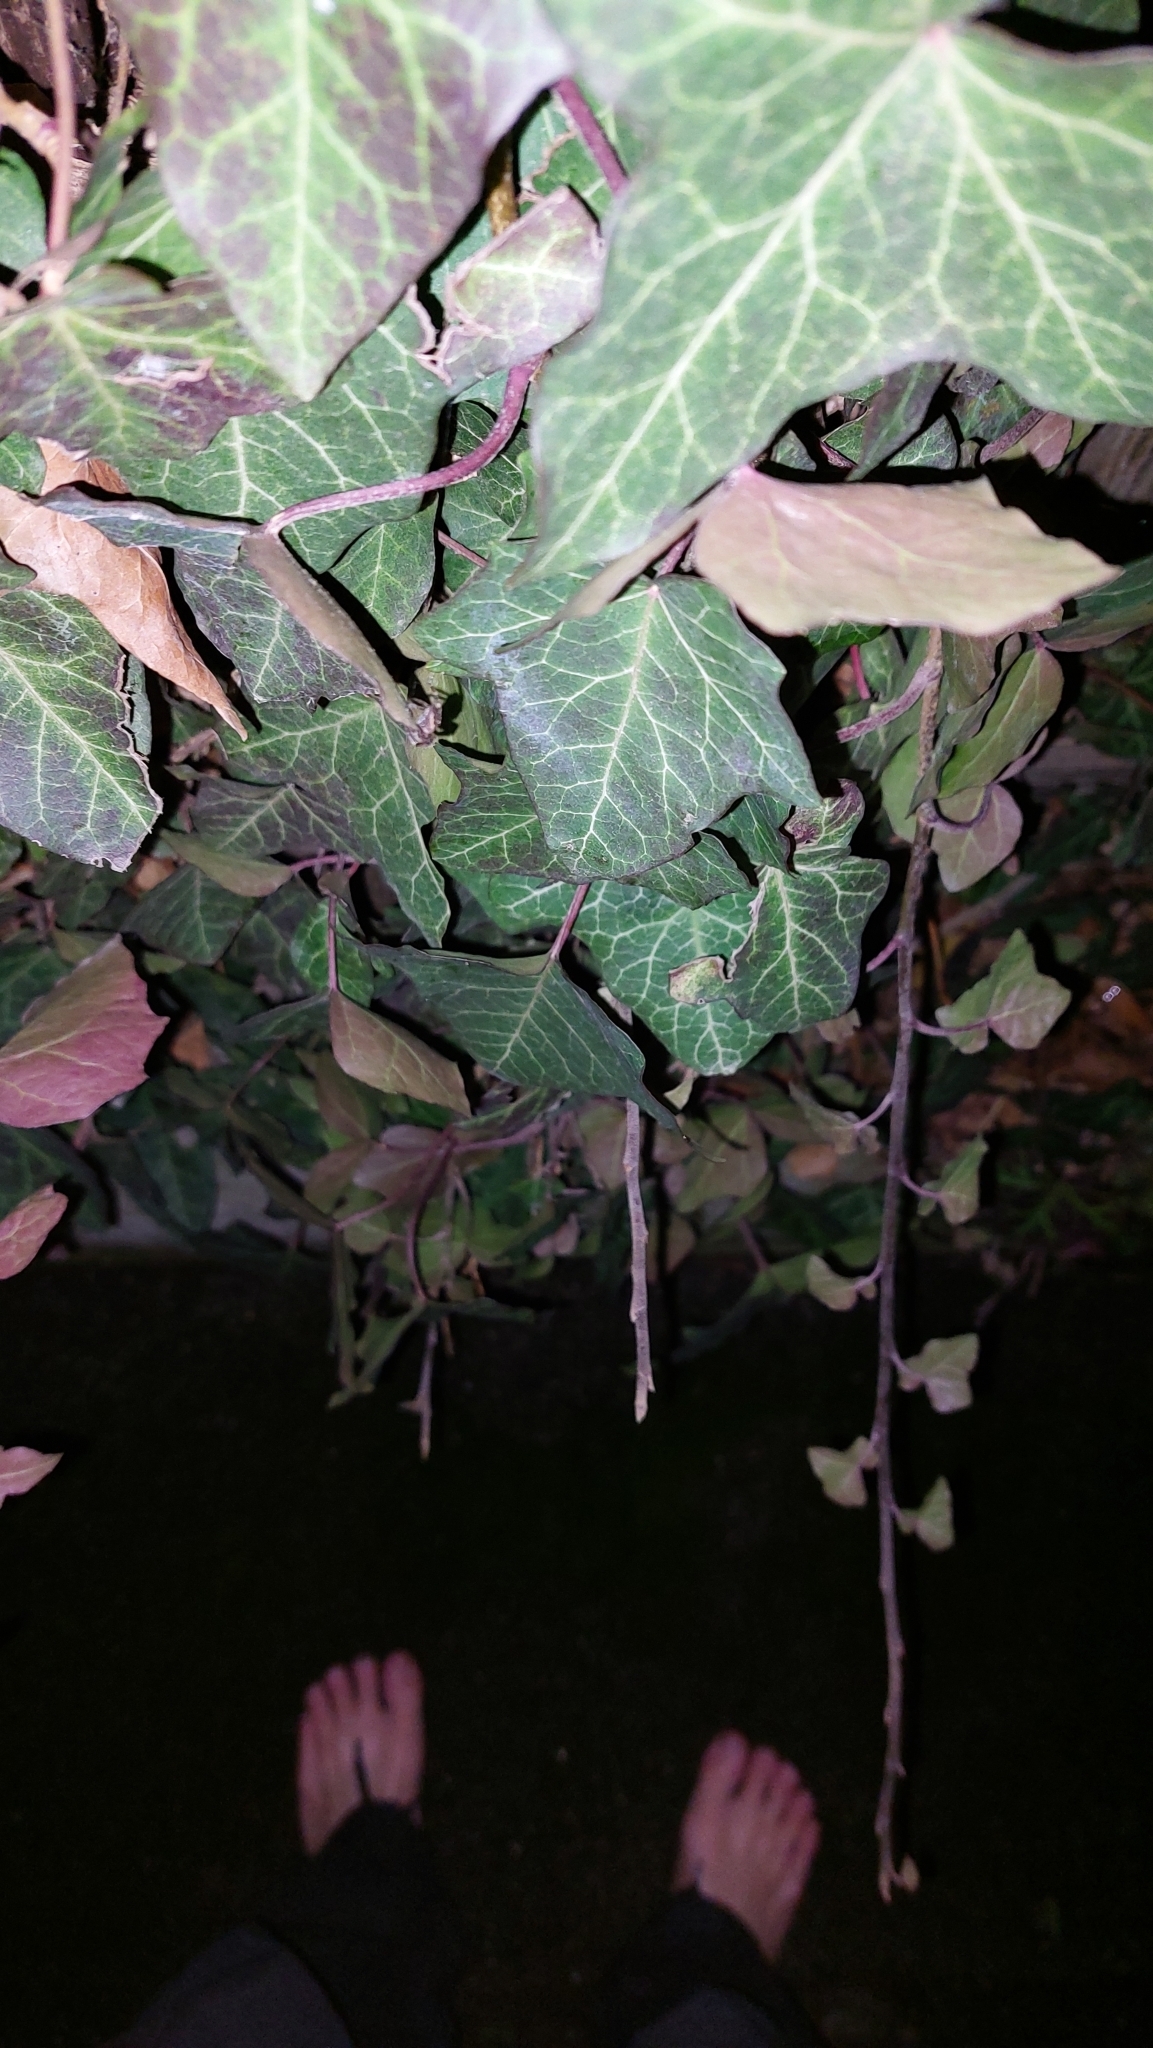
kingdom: Plantae
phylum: Tracheophyta
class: Magnoliopsida
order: Apiales
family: Araliaceae
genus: Hedera
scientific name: Hedera helix
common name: Ivy
